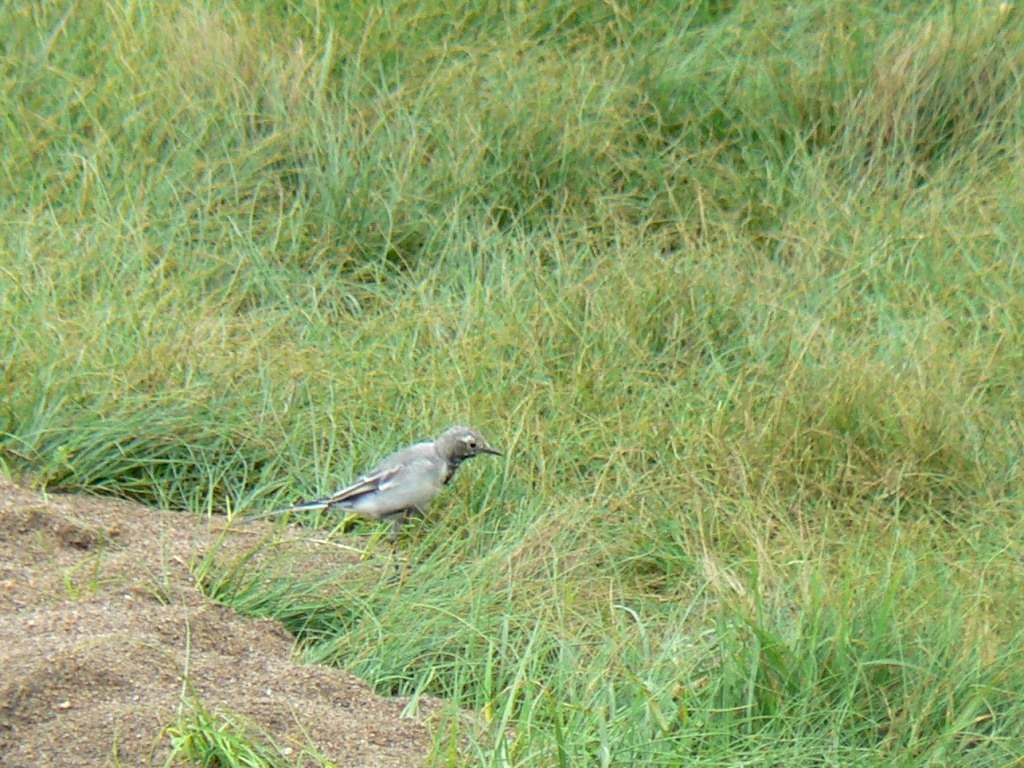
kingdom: Animalia
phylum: Chordata
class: Aves
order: Passeriformes
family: Motacillidae
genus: Motacilla
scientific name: Motacilla alba
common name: White wagtail
